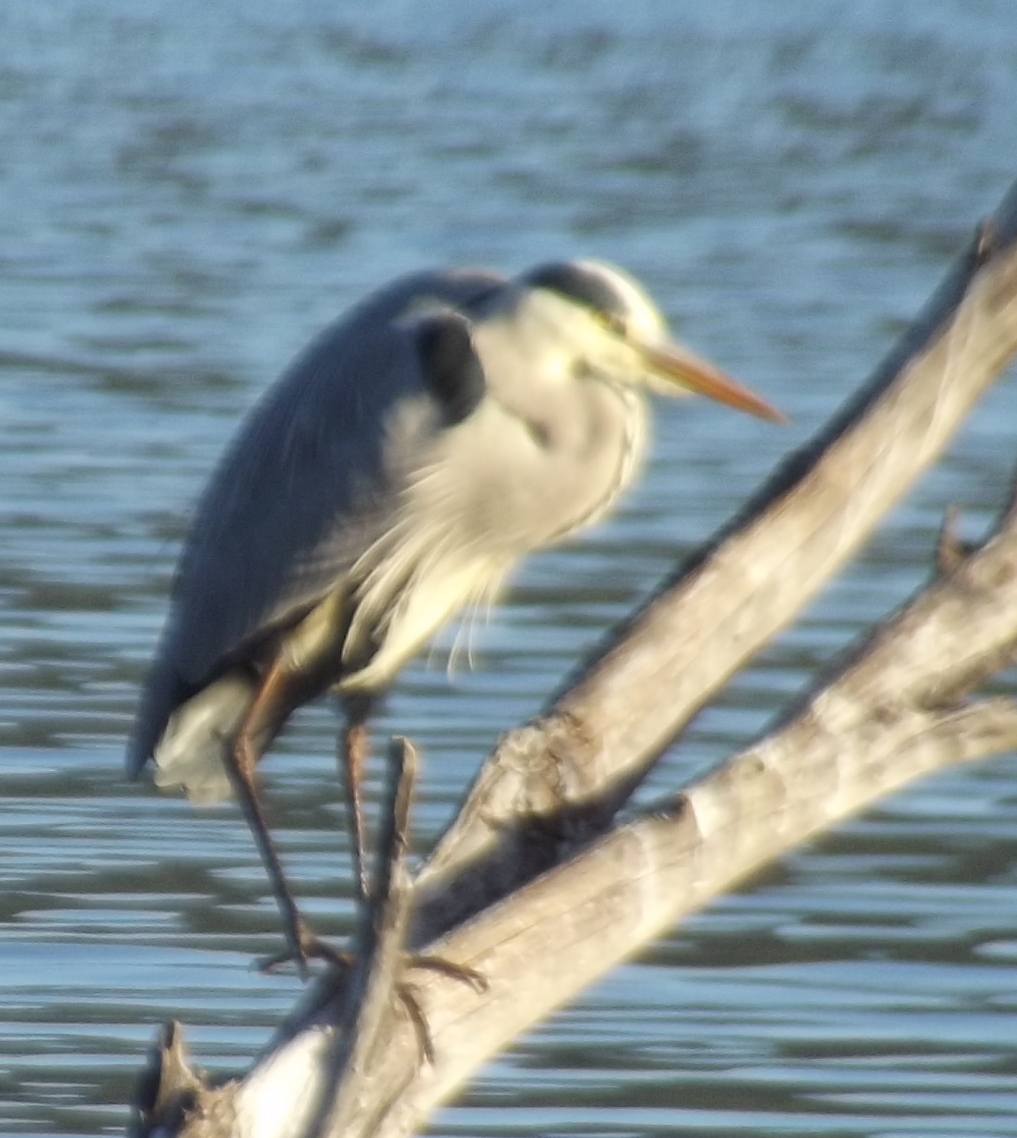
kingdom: Animalia
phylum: Chordata
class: Aves
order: Pelecaniformes
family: Ardeidae
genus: Ardea
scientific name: Ardea cinerea
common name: Grey heron
